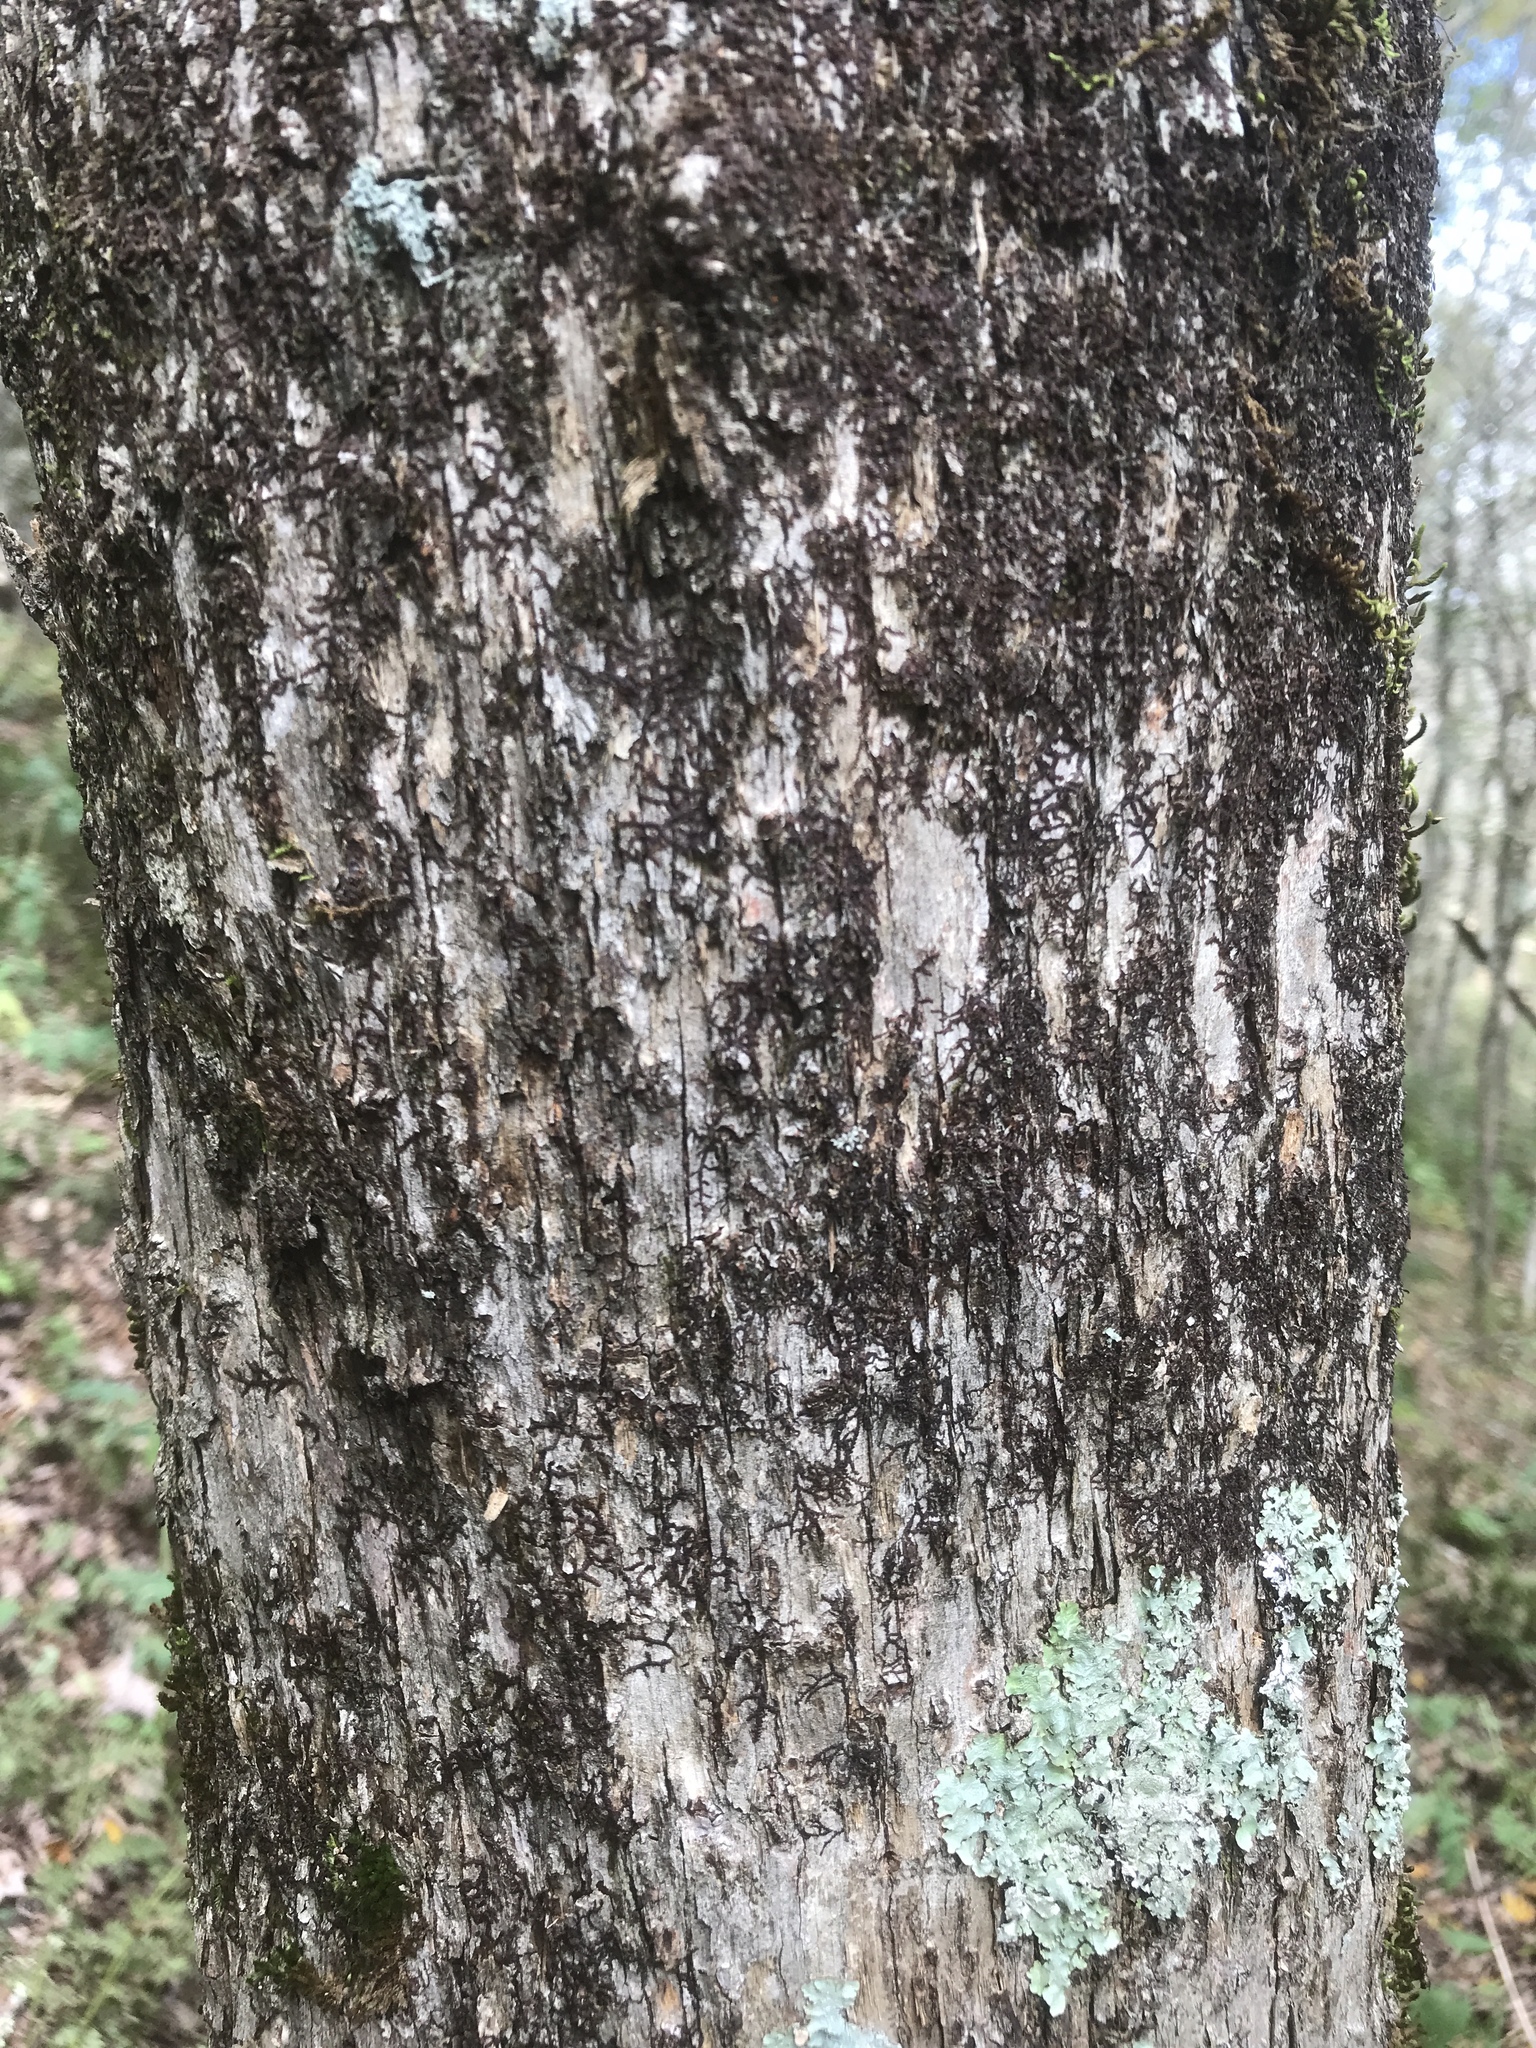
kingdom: Plantae
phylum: Tracheophyta
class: Magnoliopsida
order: Fagales
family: Betulaceae
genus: Ostrya
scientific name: Ostrya virginiana
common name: Ironwood
